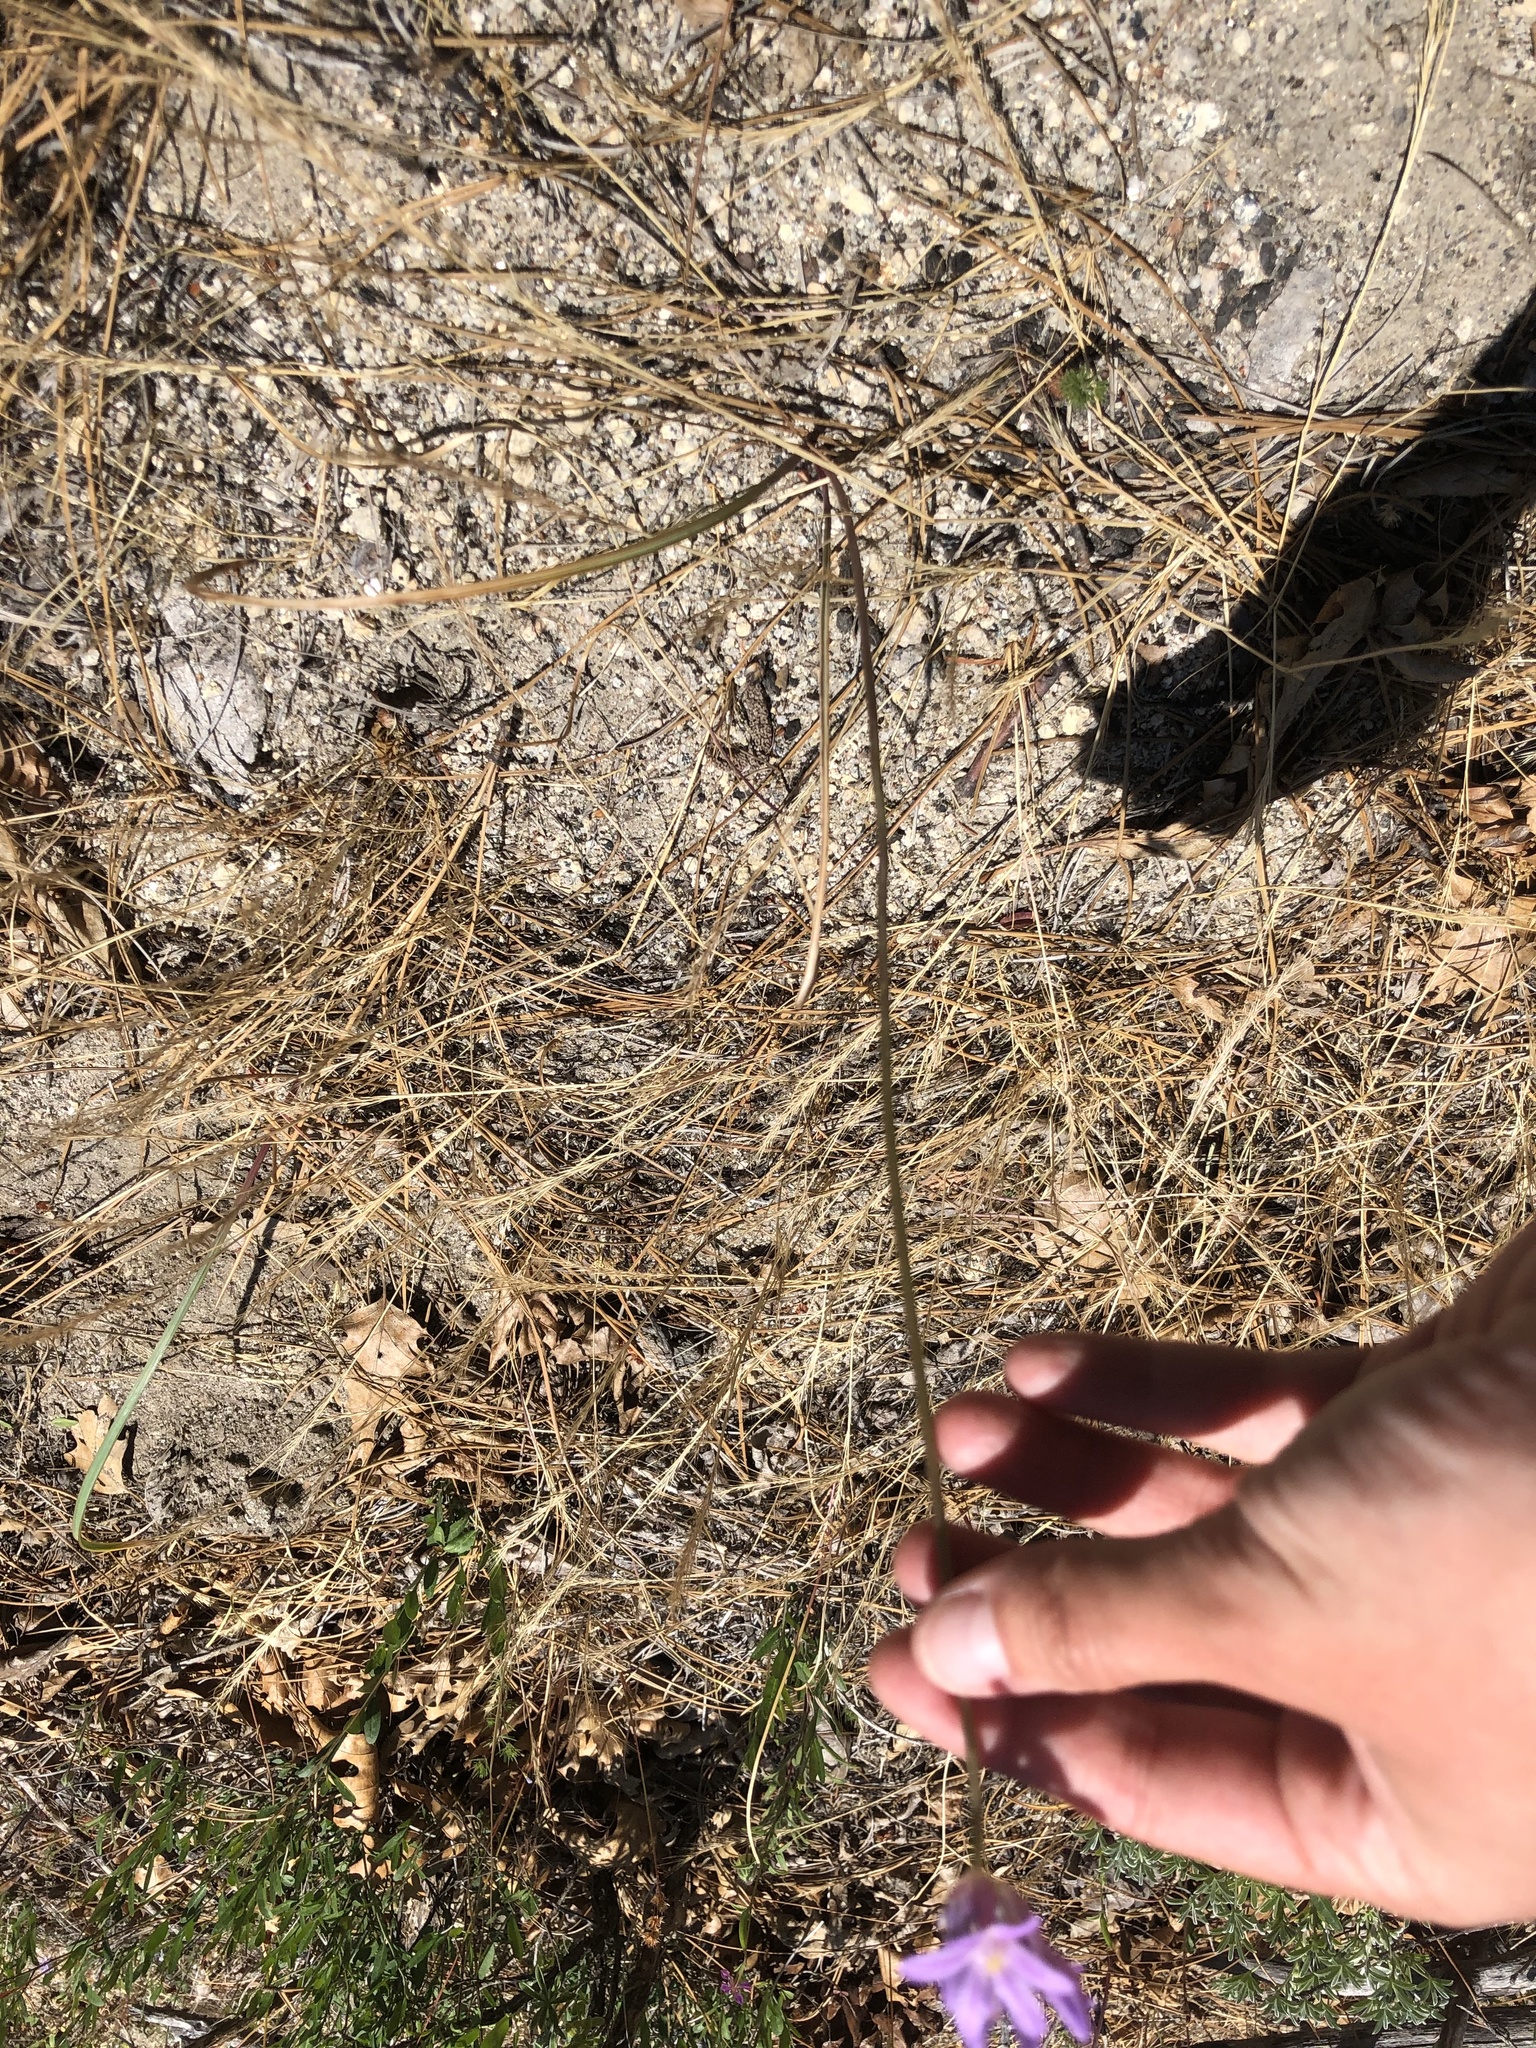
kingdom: Plantae
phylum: Tracheophyta
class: Liliopsida
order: Asparagales
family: Asparagaceae
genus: Dichelostemma
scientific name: Dichelostemma multiflorum
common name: Round-tooth ookow
